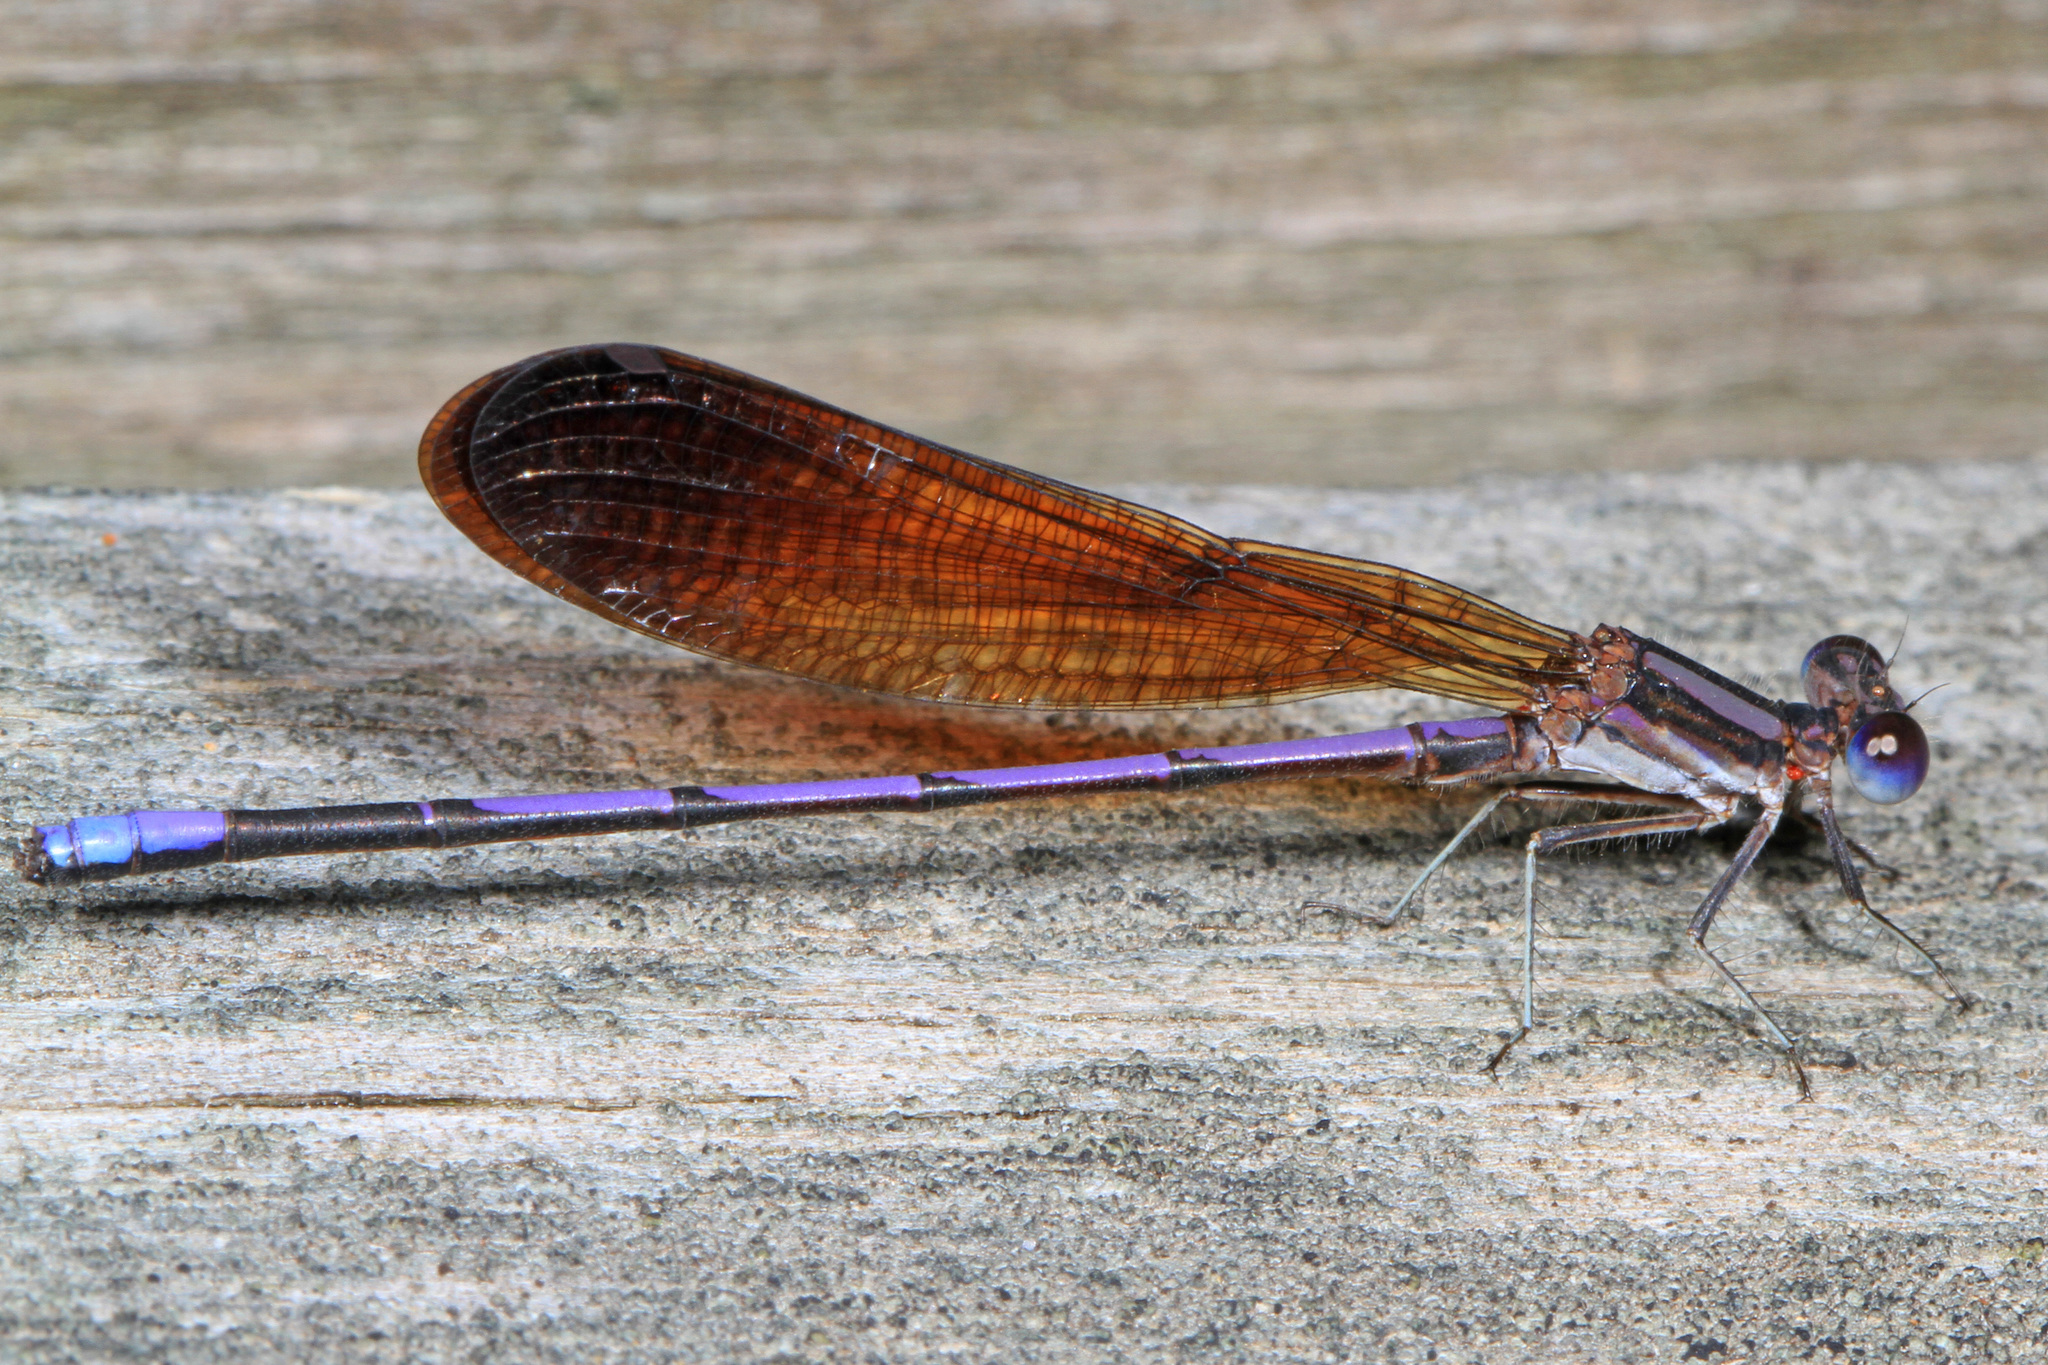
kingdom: Animalia
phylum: Arthropoda
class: Insecta
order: Odonata
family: Coenagrionidae
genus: Argia
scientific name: Argia fumipennis
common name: Variable dancer
